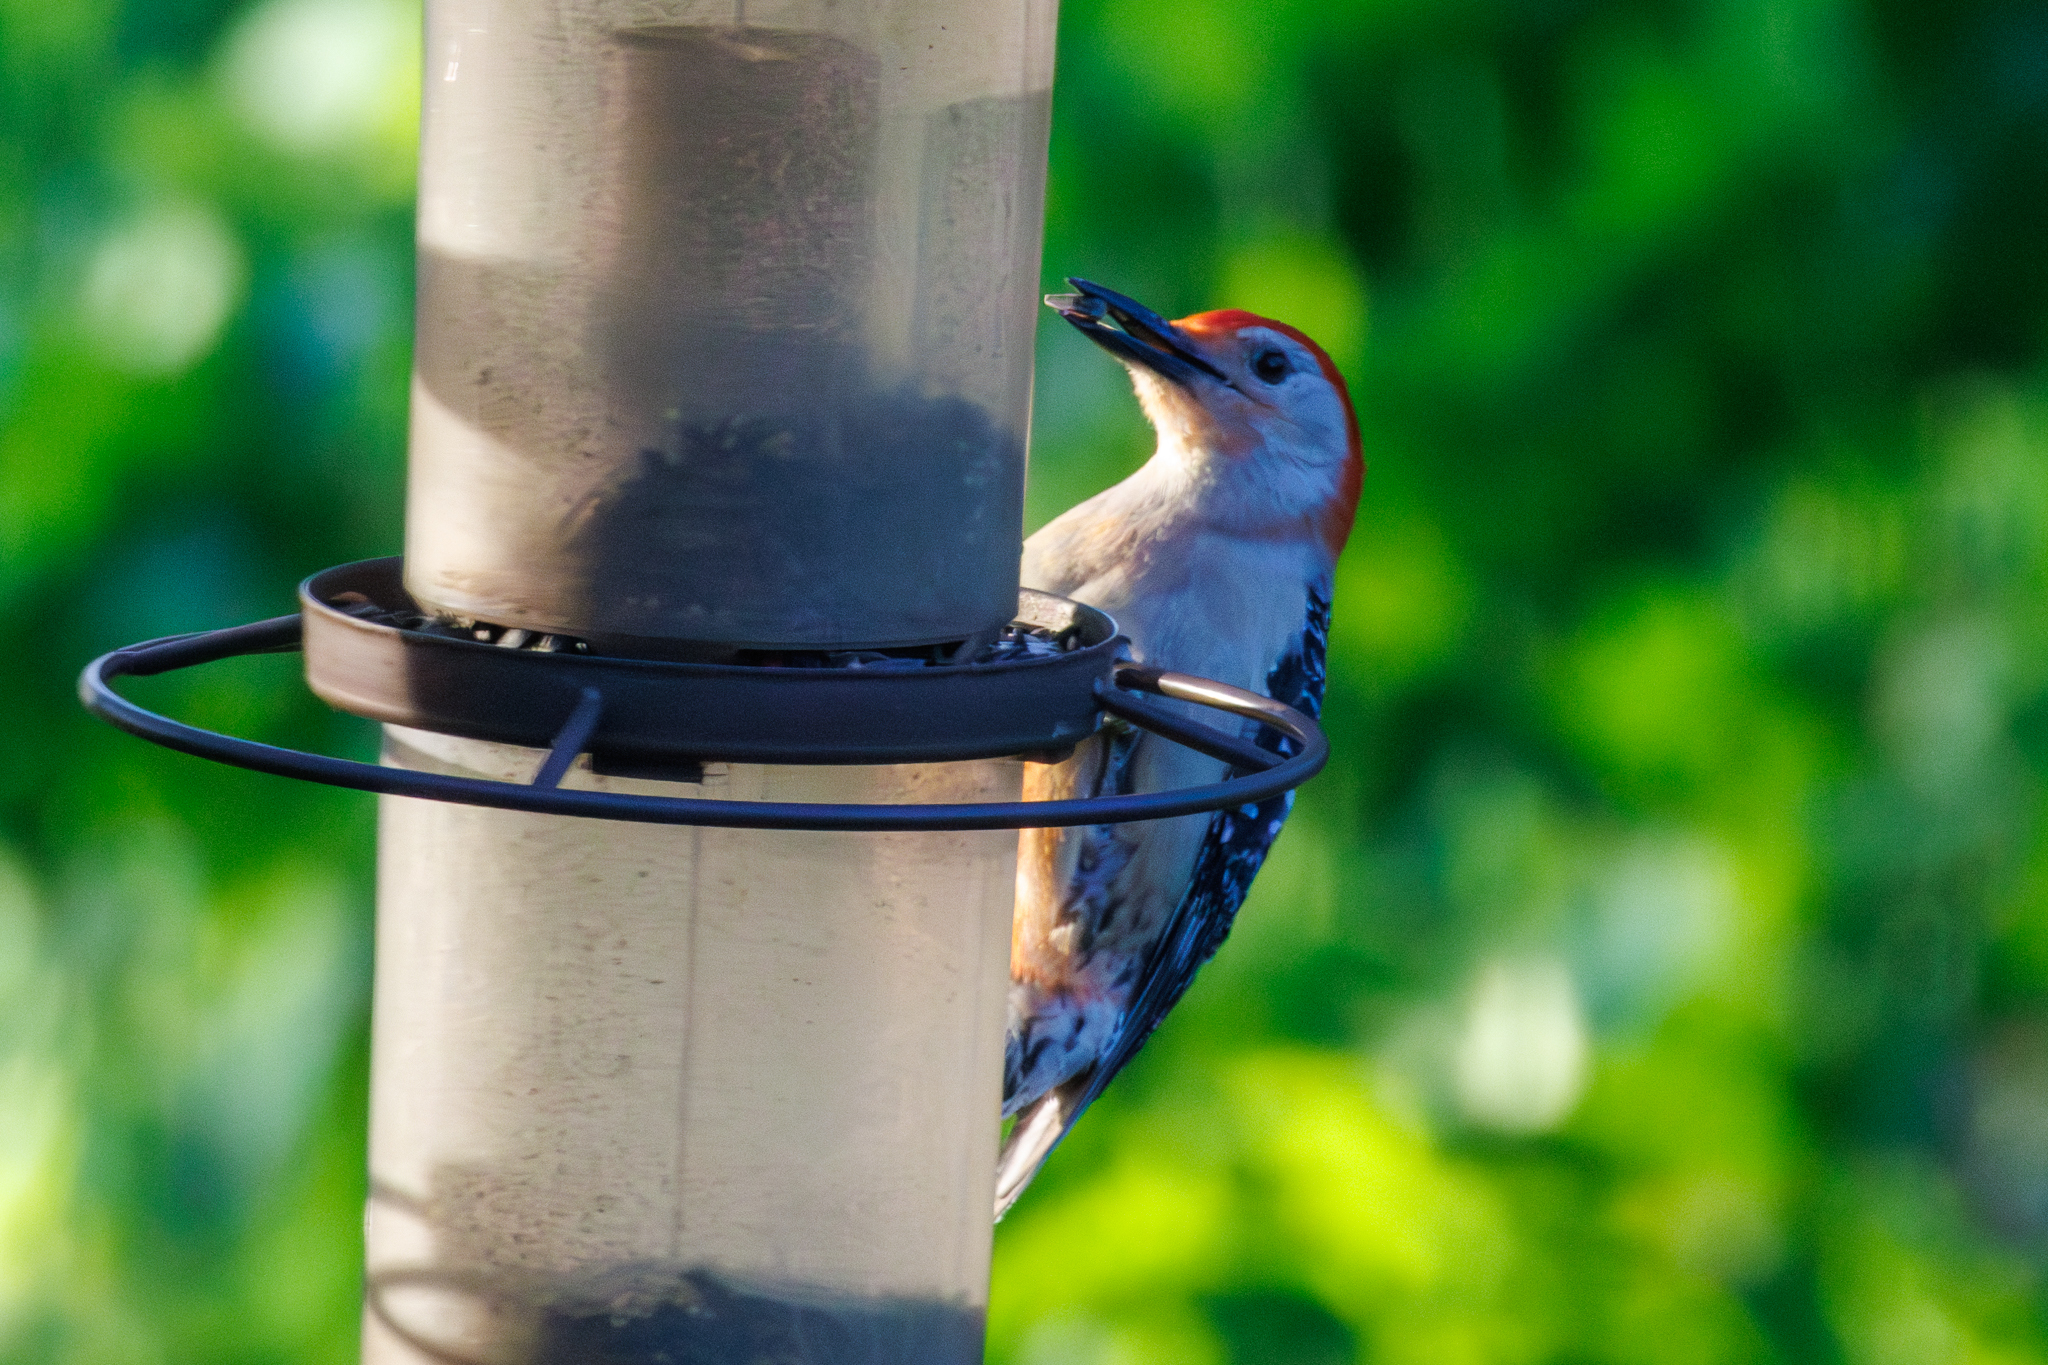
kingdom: Animalia
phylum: Chordata
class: Aves
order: Piciformes
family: Picidae
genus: Melanerpes
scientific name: Melanerpes carolinus
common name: Red-bellied woodpecker
